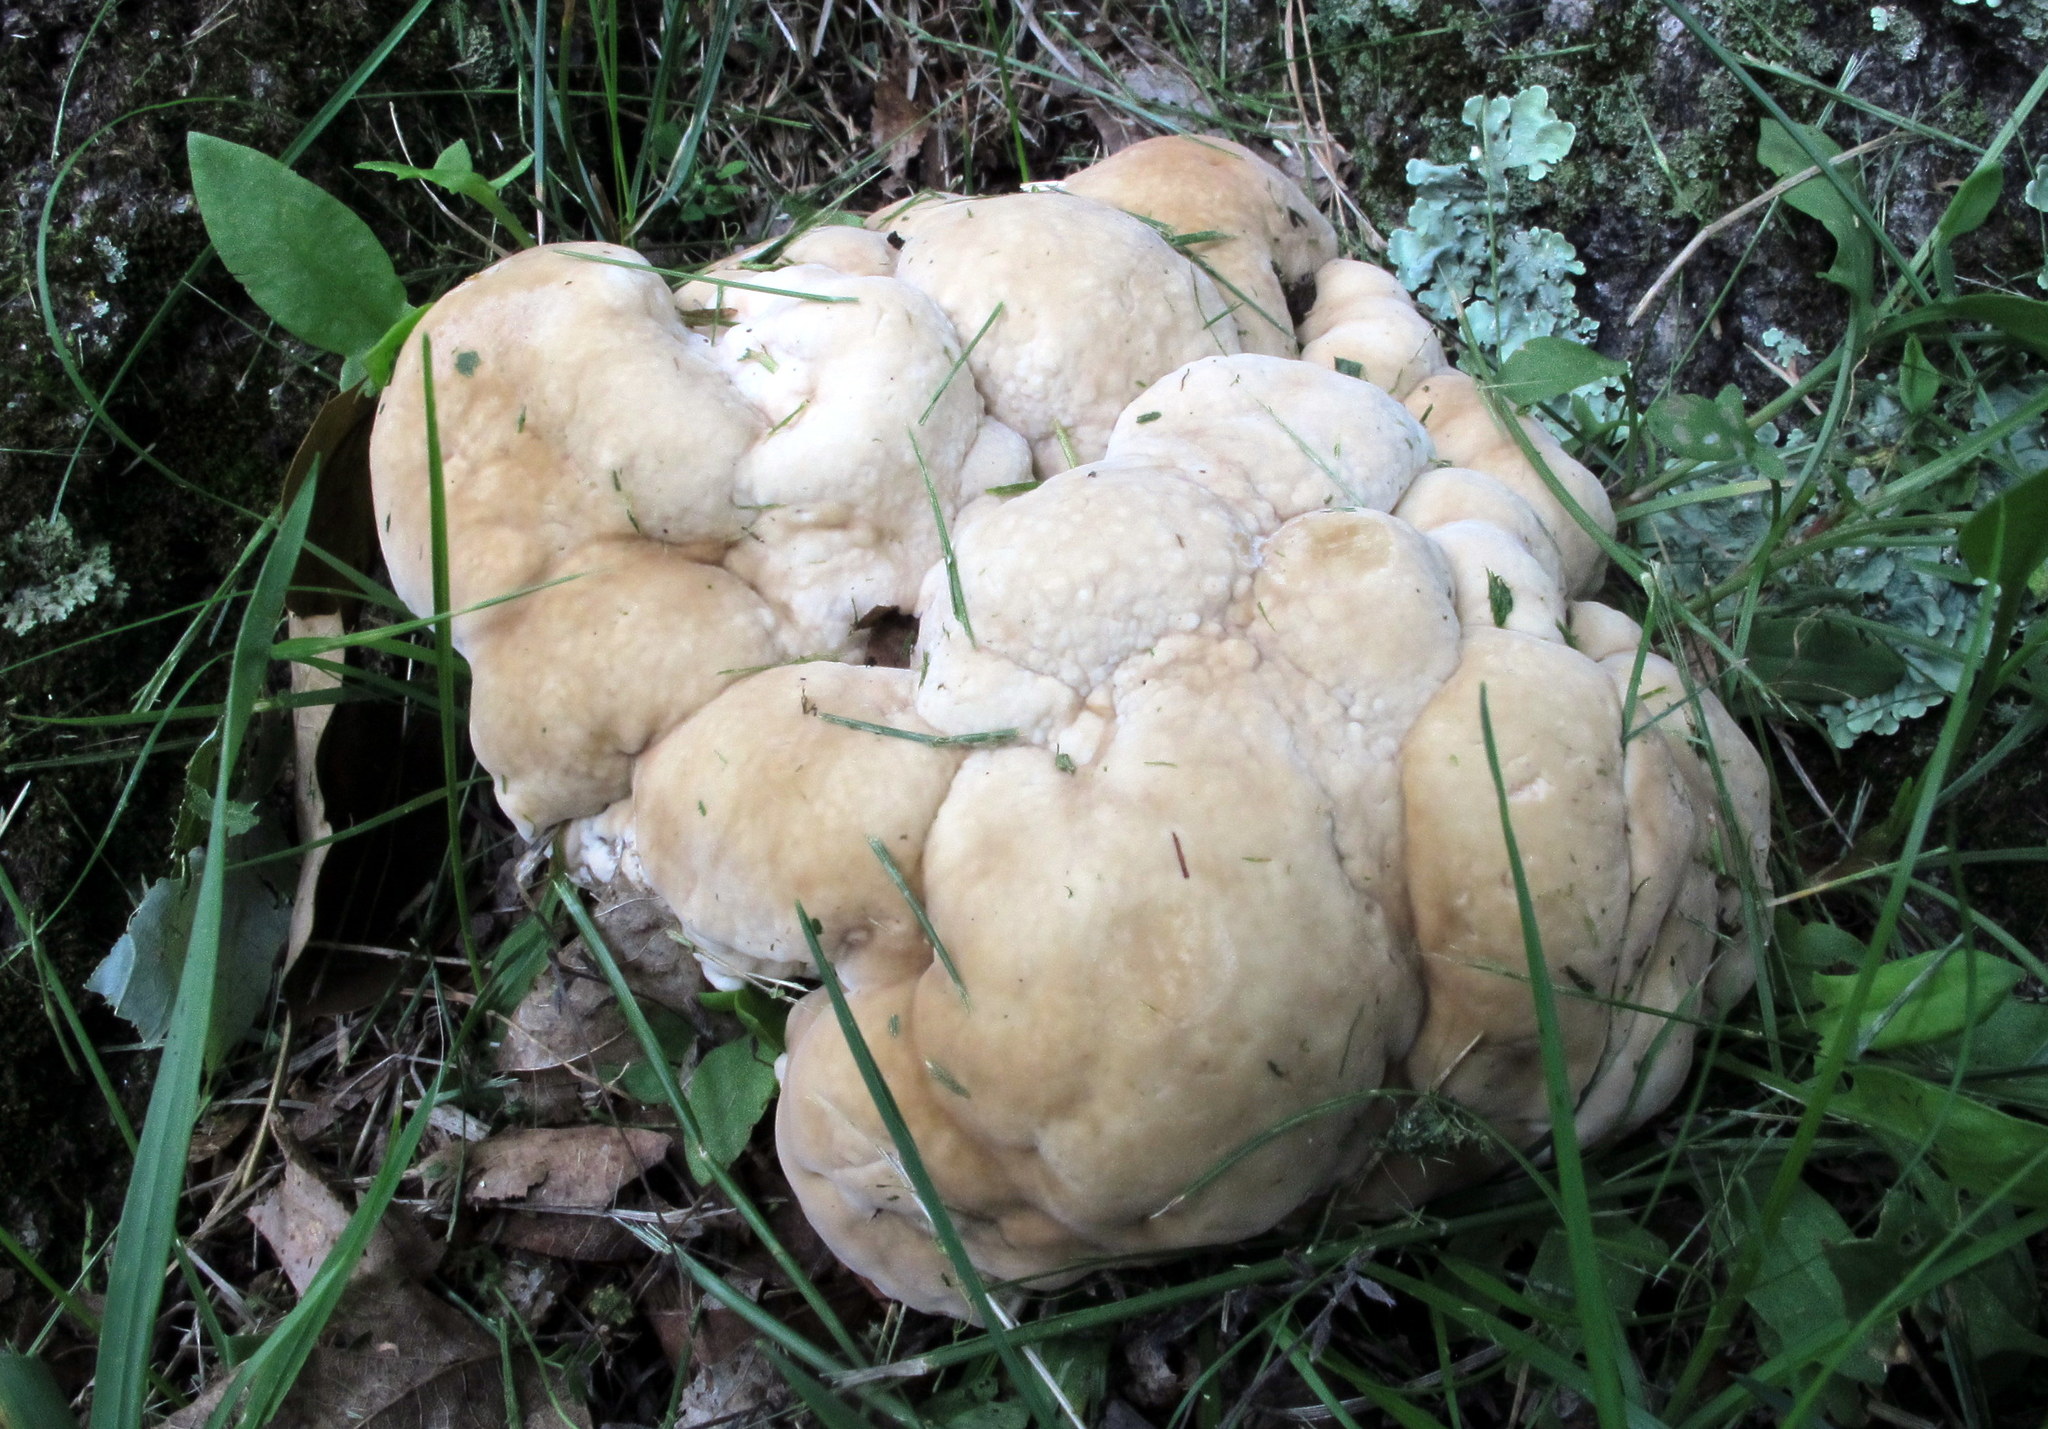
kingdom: Fungi
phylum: Basidiomycota
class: Agaricomycetes
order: Russulales
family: Bondarzewiaceae
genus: Bondarzewia
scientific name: Bondarzewia berkeleyi
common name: Berkeley's polypore
